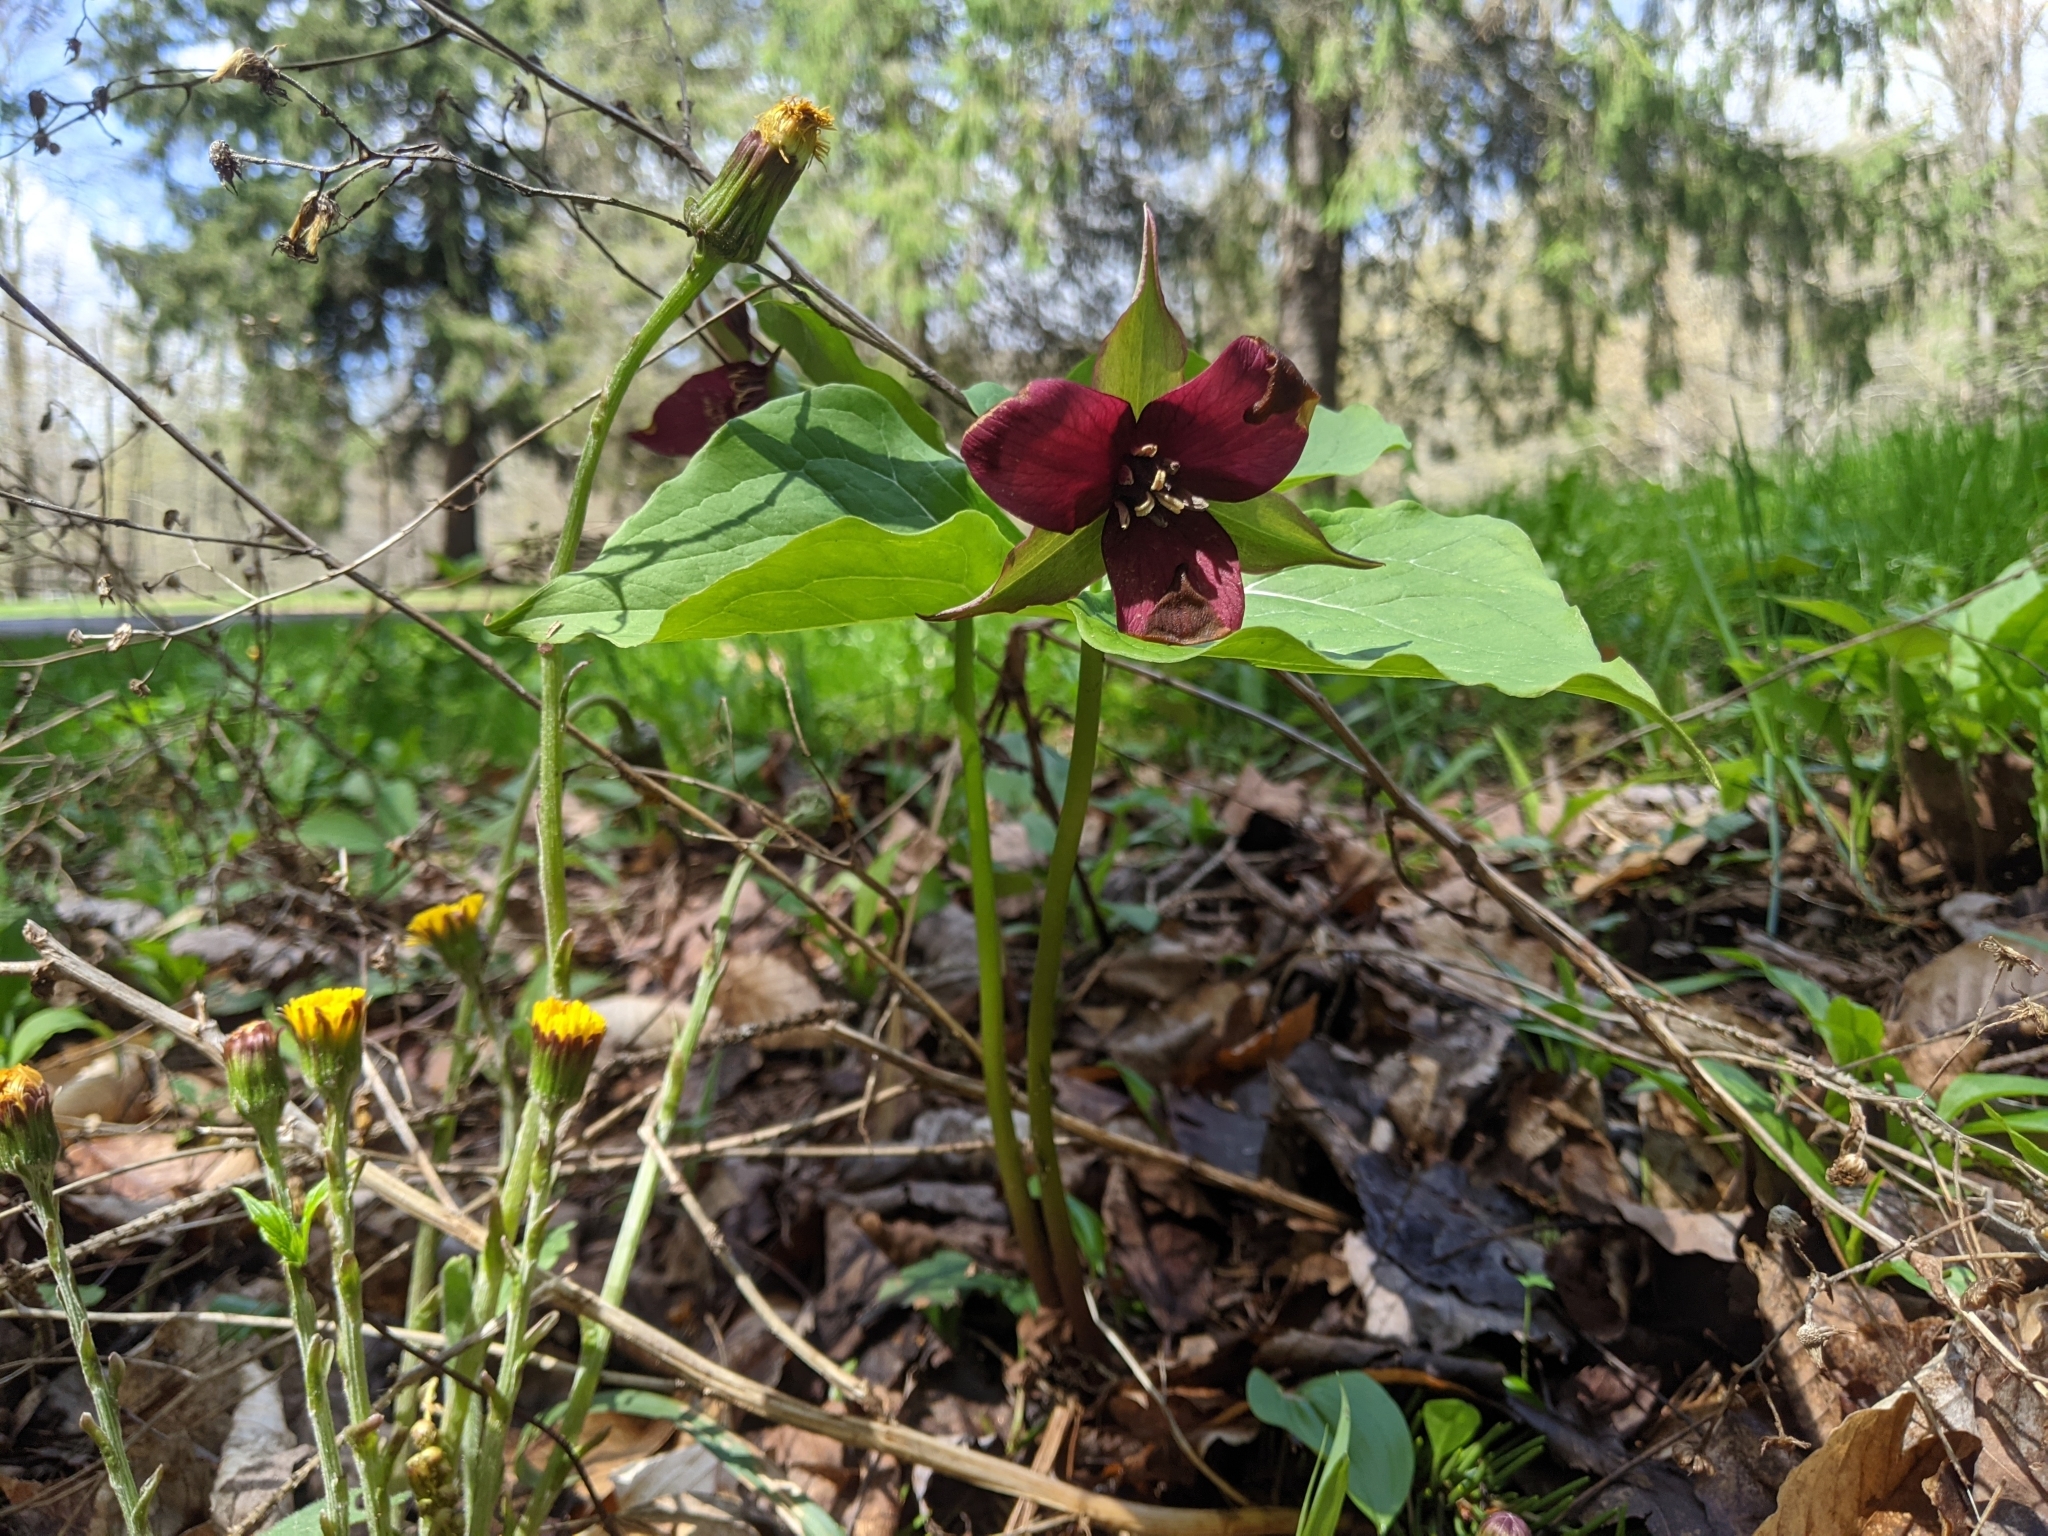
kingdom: Plantae
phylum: Tracheophyta
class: Liliopsida
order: Liliales
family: Melanthiaceae
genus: Trillium
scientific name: Trillium erectum
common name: Purple trillium
